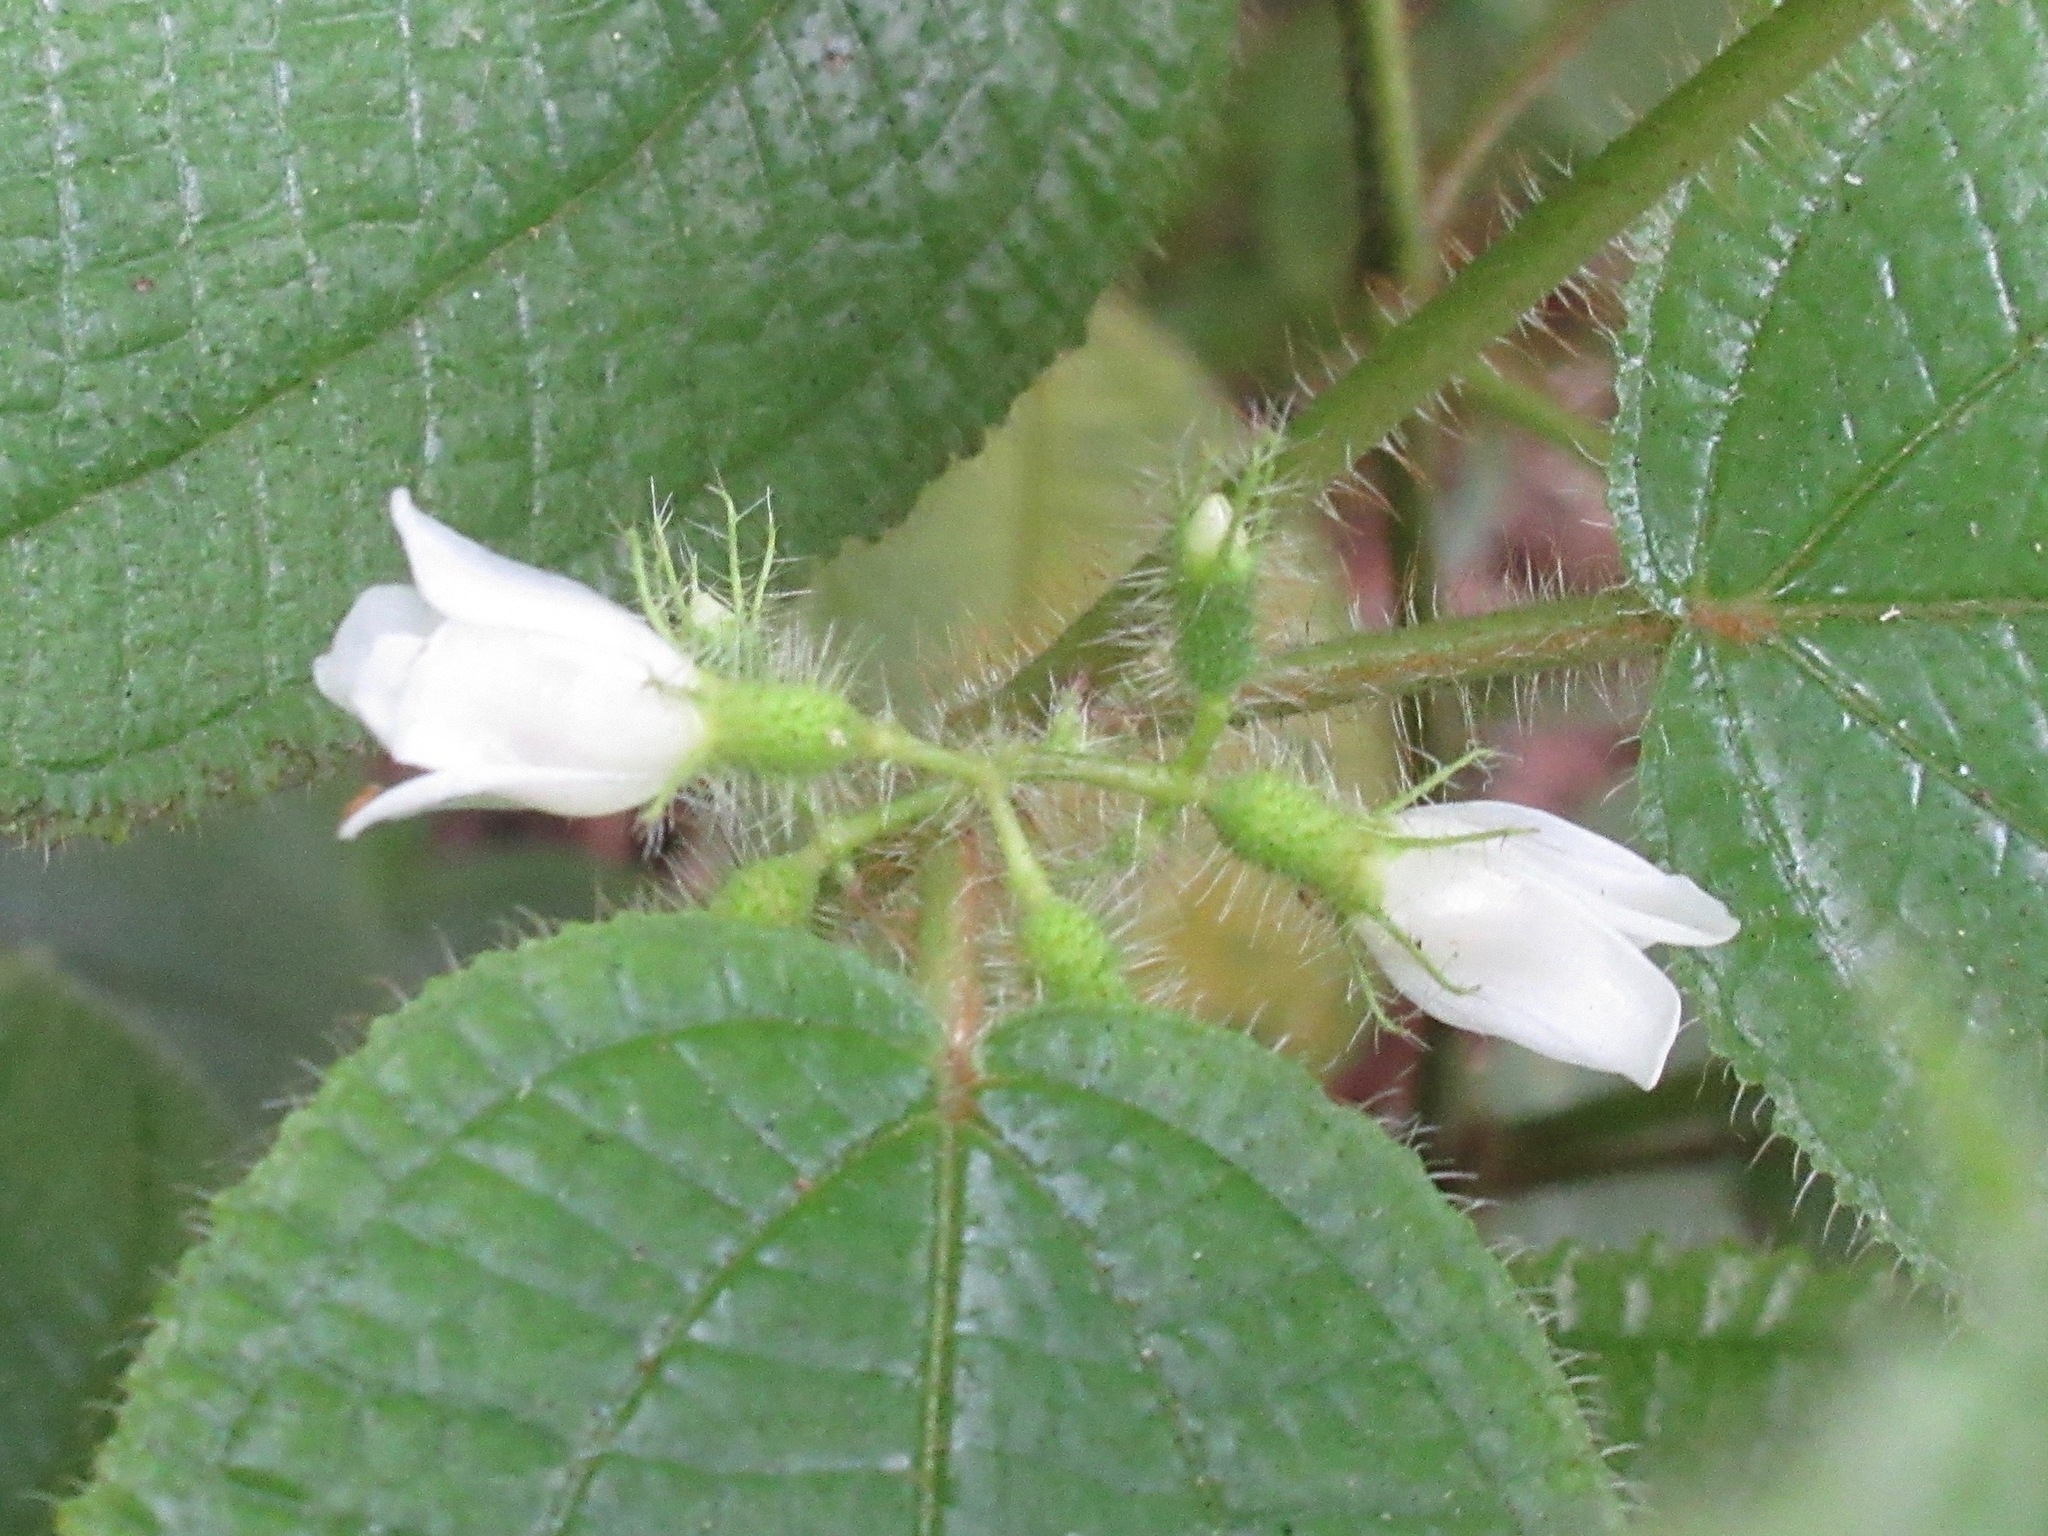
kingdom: Plantae
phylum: Tracheophyta
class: Magnoliopsida
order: Myrtales
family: Melastomataceae
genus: Miconia
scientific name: Miconia crenata
